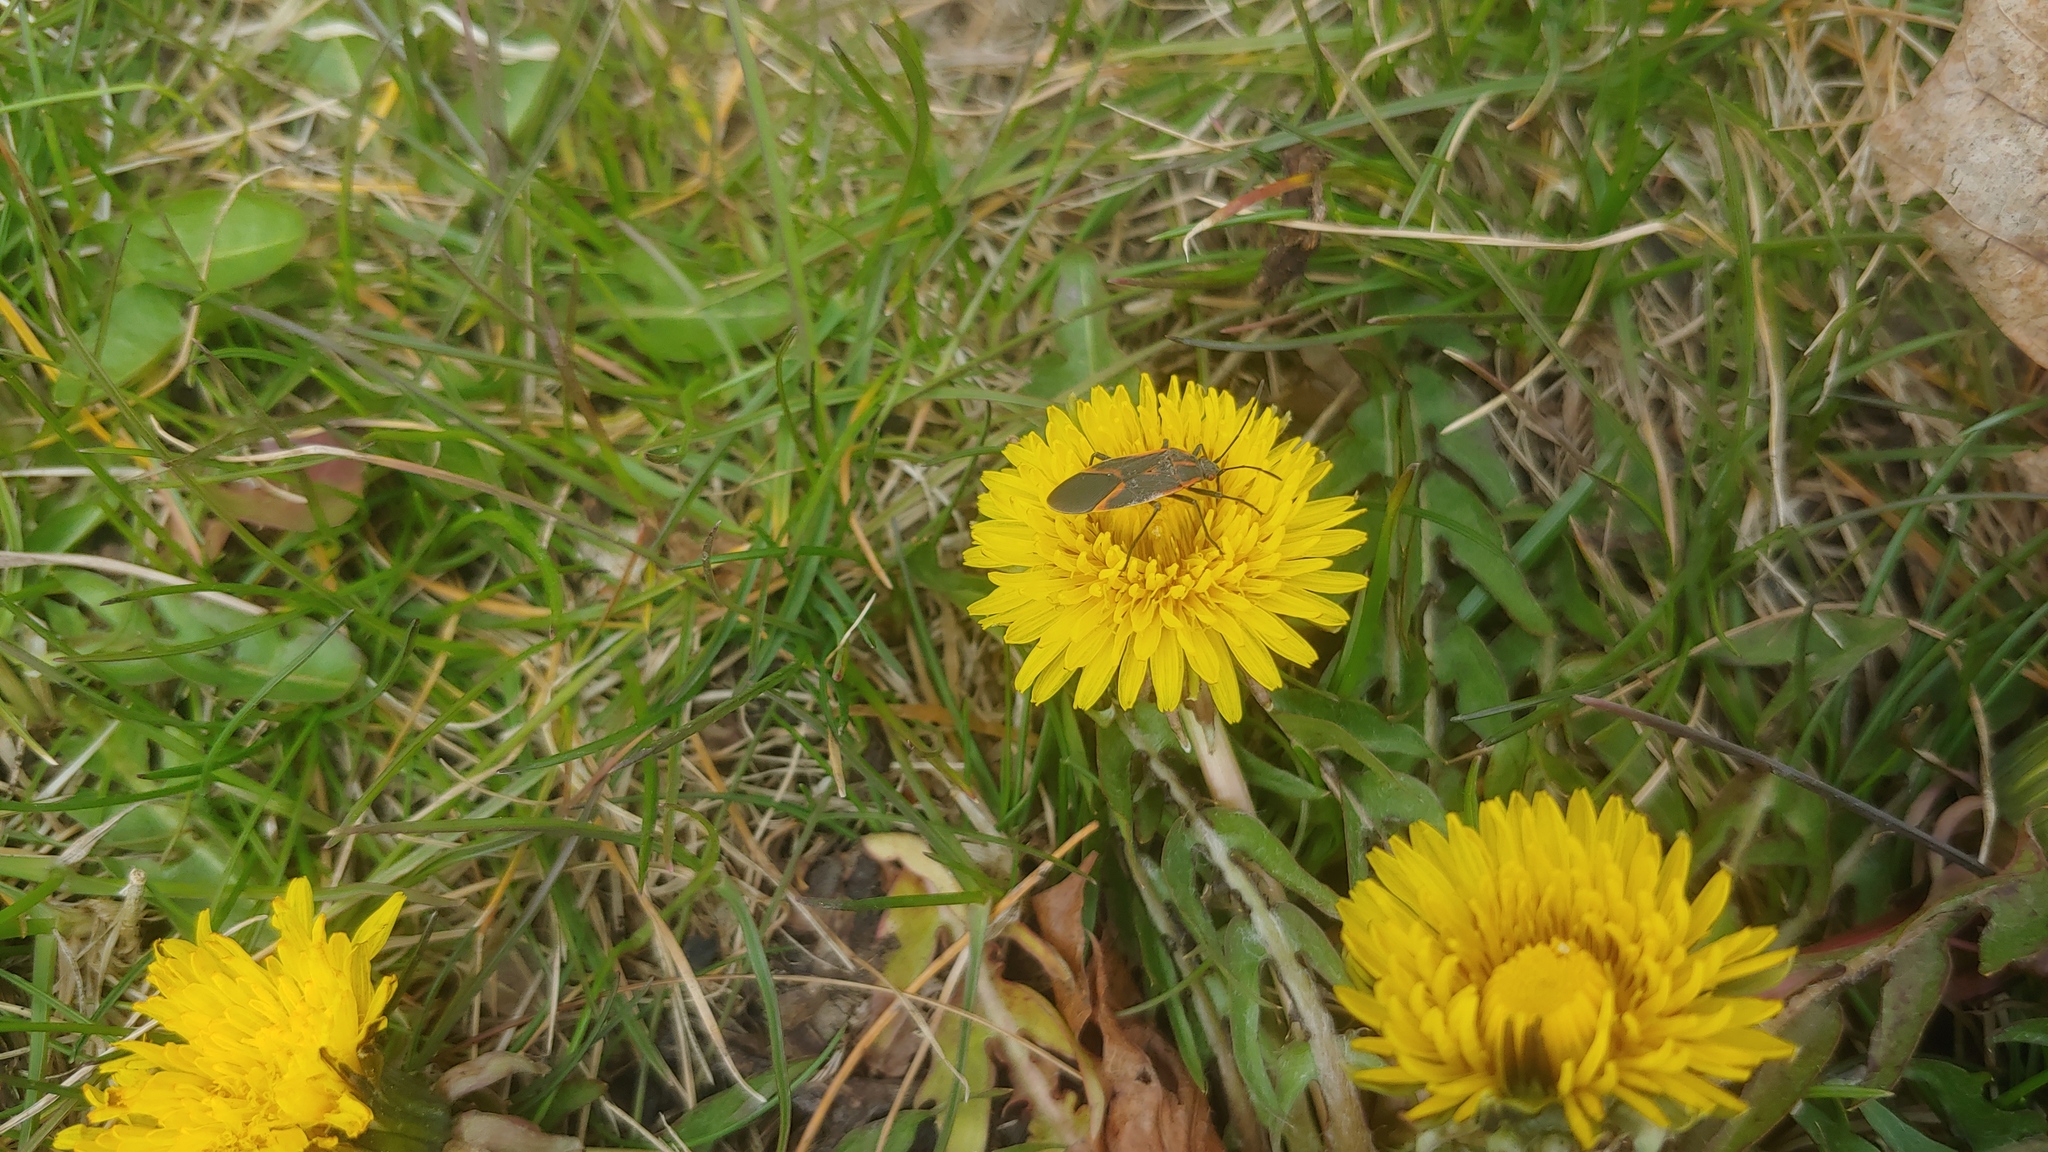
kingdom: Animalia
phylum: Arthropoda
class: Insecta
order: Hemiptera
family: Rhopalidae
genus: Boisea
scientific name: Boisea trivittata
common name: Boxelder bug
